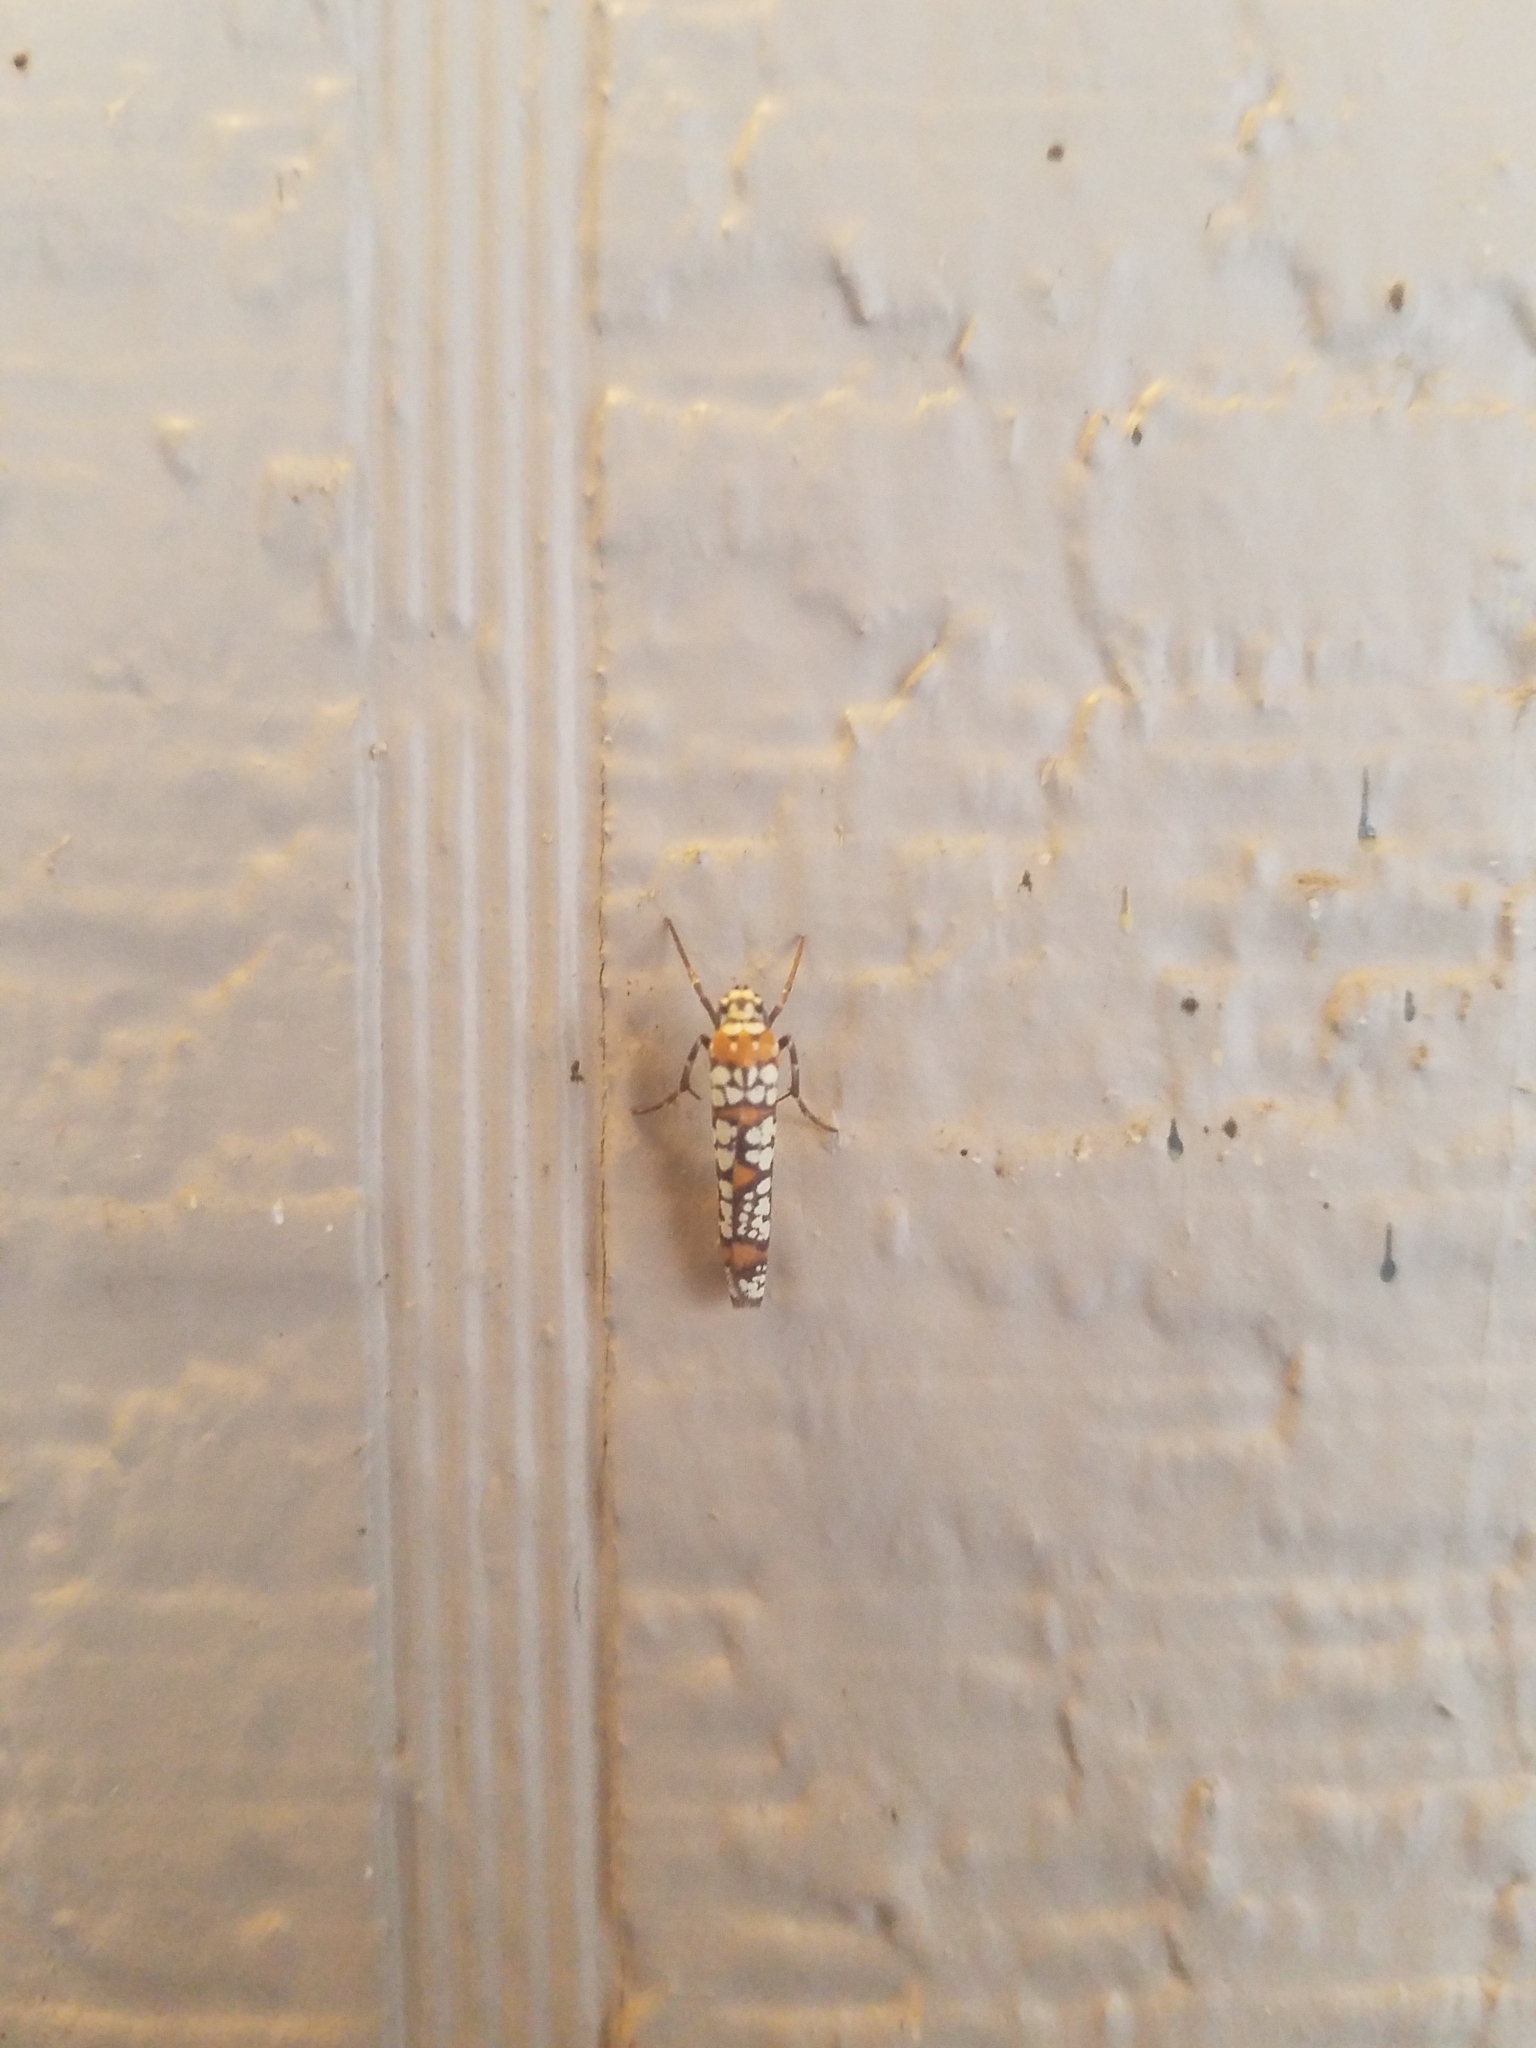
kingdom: Animalia
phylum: Arthropoda
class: Insecta
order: Lepidoptera
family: Attevidae
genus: Atteva
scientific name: Atteva punctella
